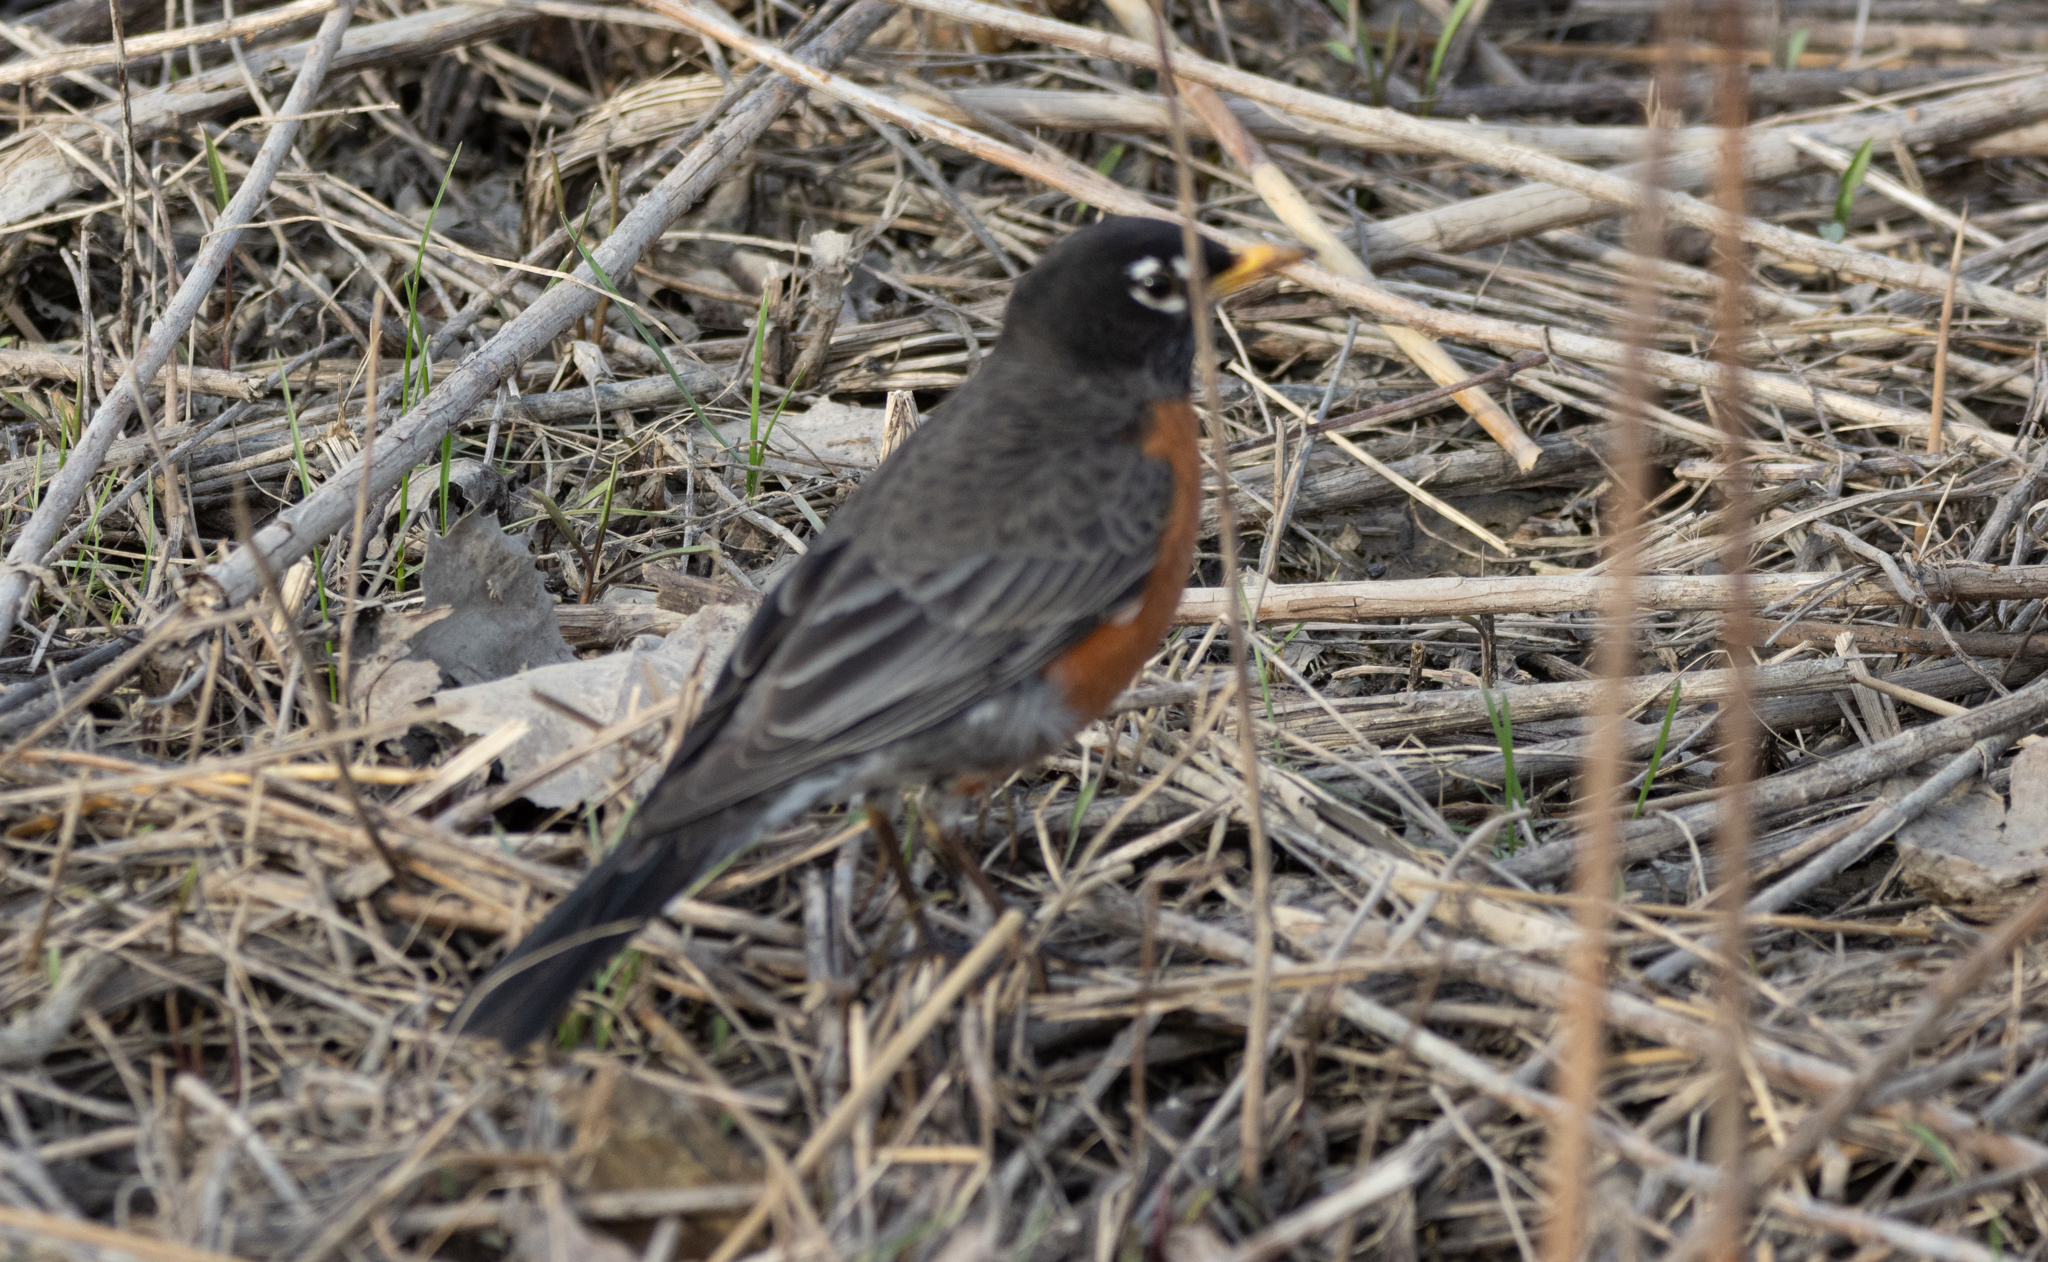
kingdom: Animalia
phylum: Chordata
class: Aves
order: Passeriformes
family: Turdidae
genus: Turdus
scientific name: Turdus migratorius
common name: American robin
